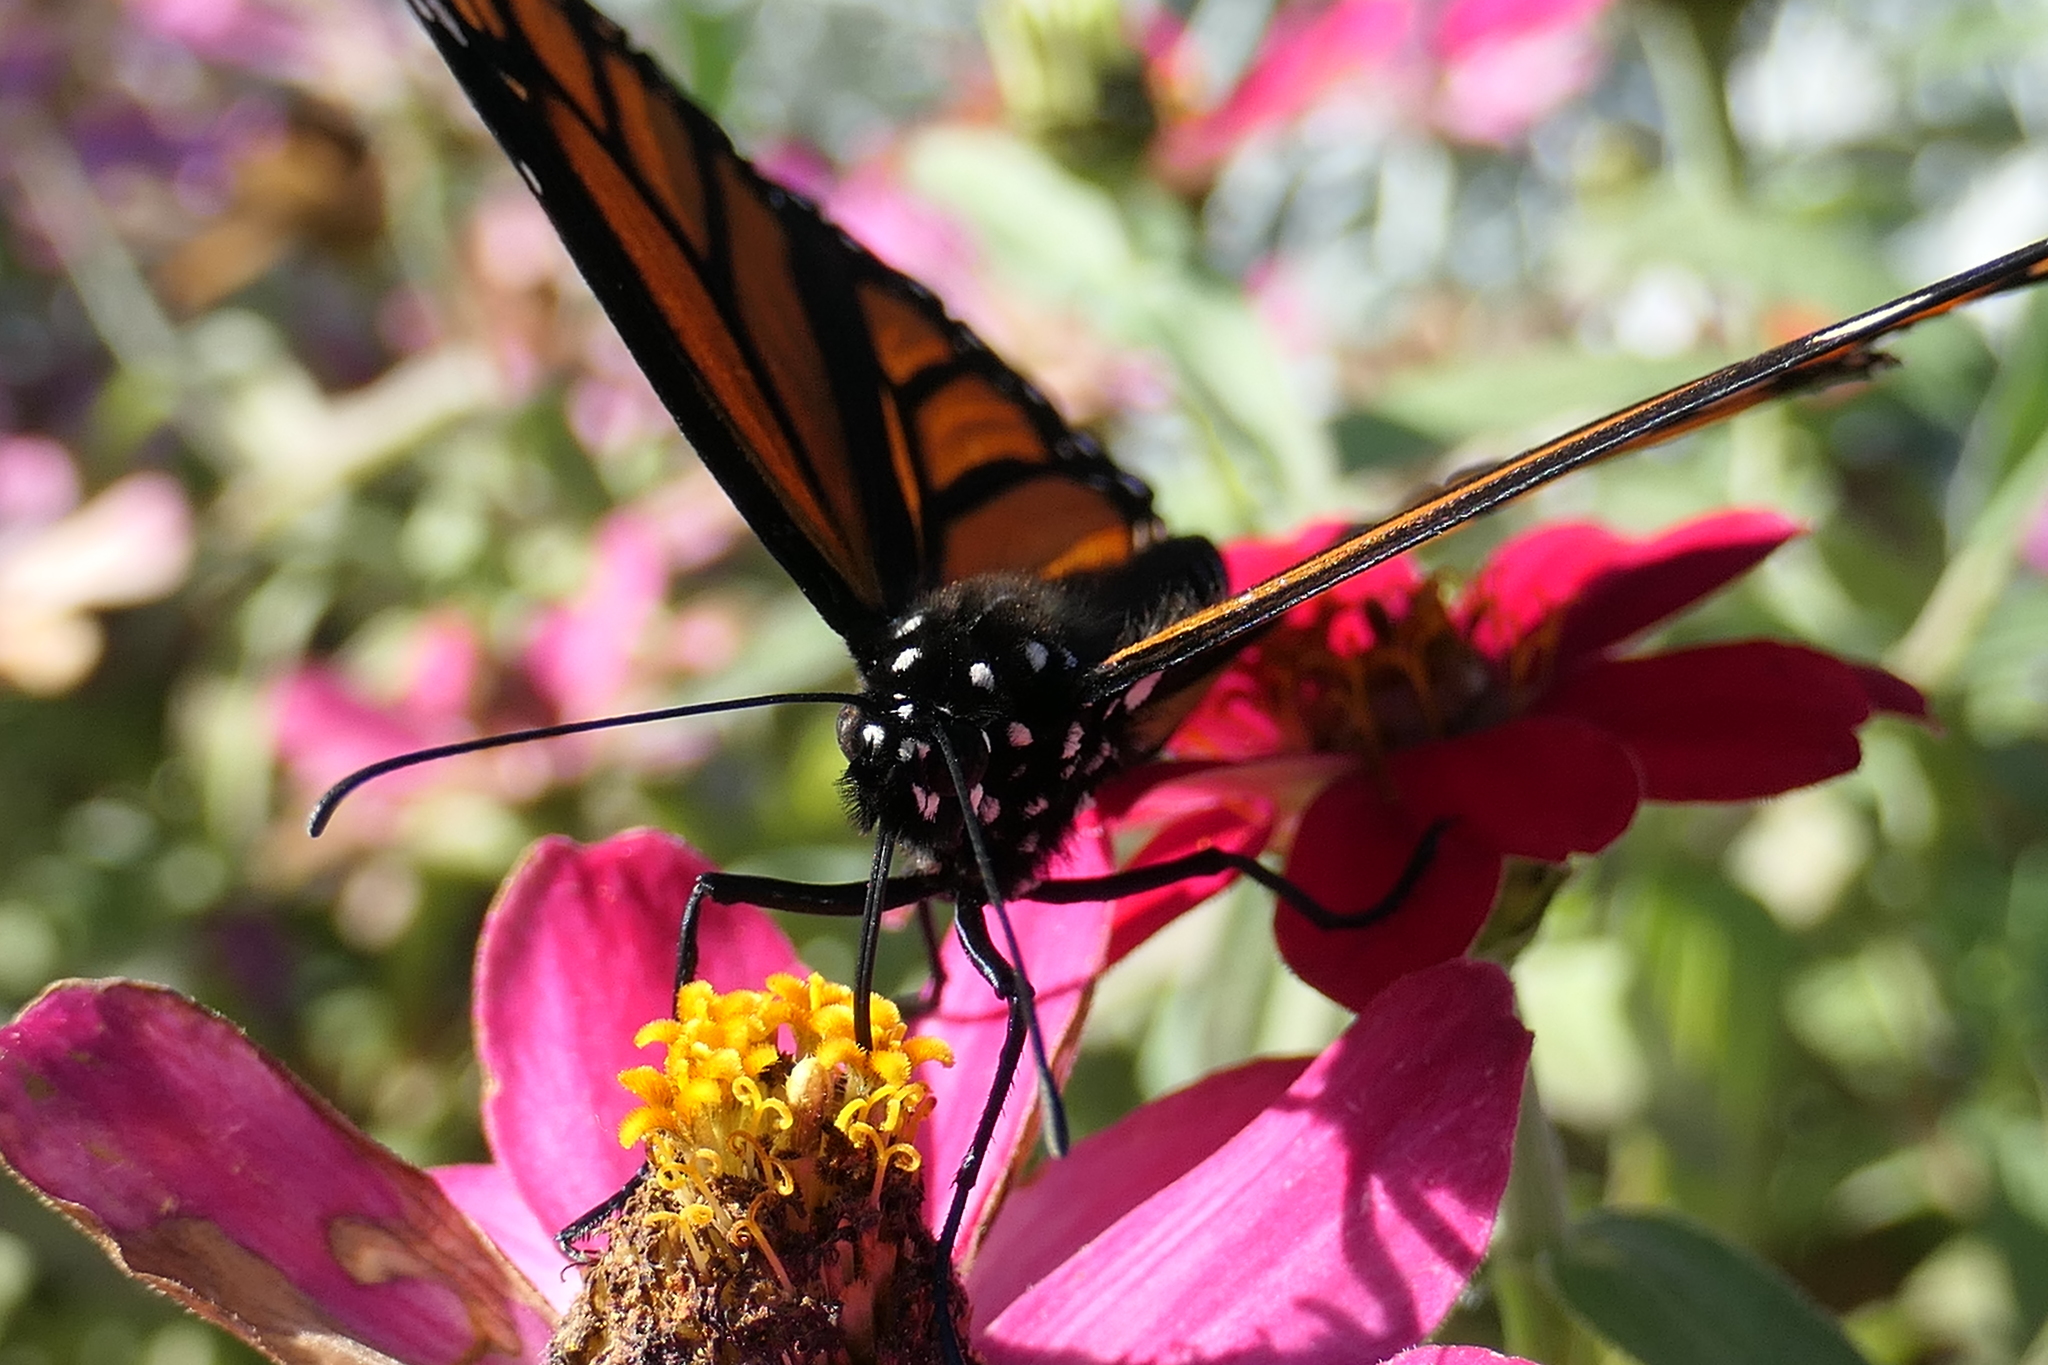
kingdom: Animalia
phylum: Arthropoda
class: Insecta
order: Lepidoptera
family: Nymphalidae
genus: Danaus
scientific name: Danaus plexippus
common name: Monarch
